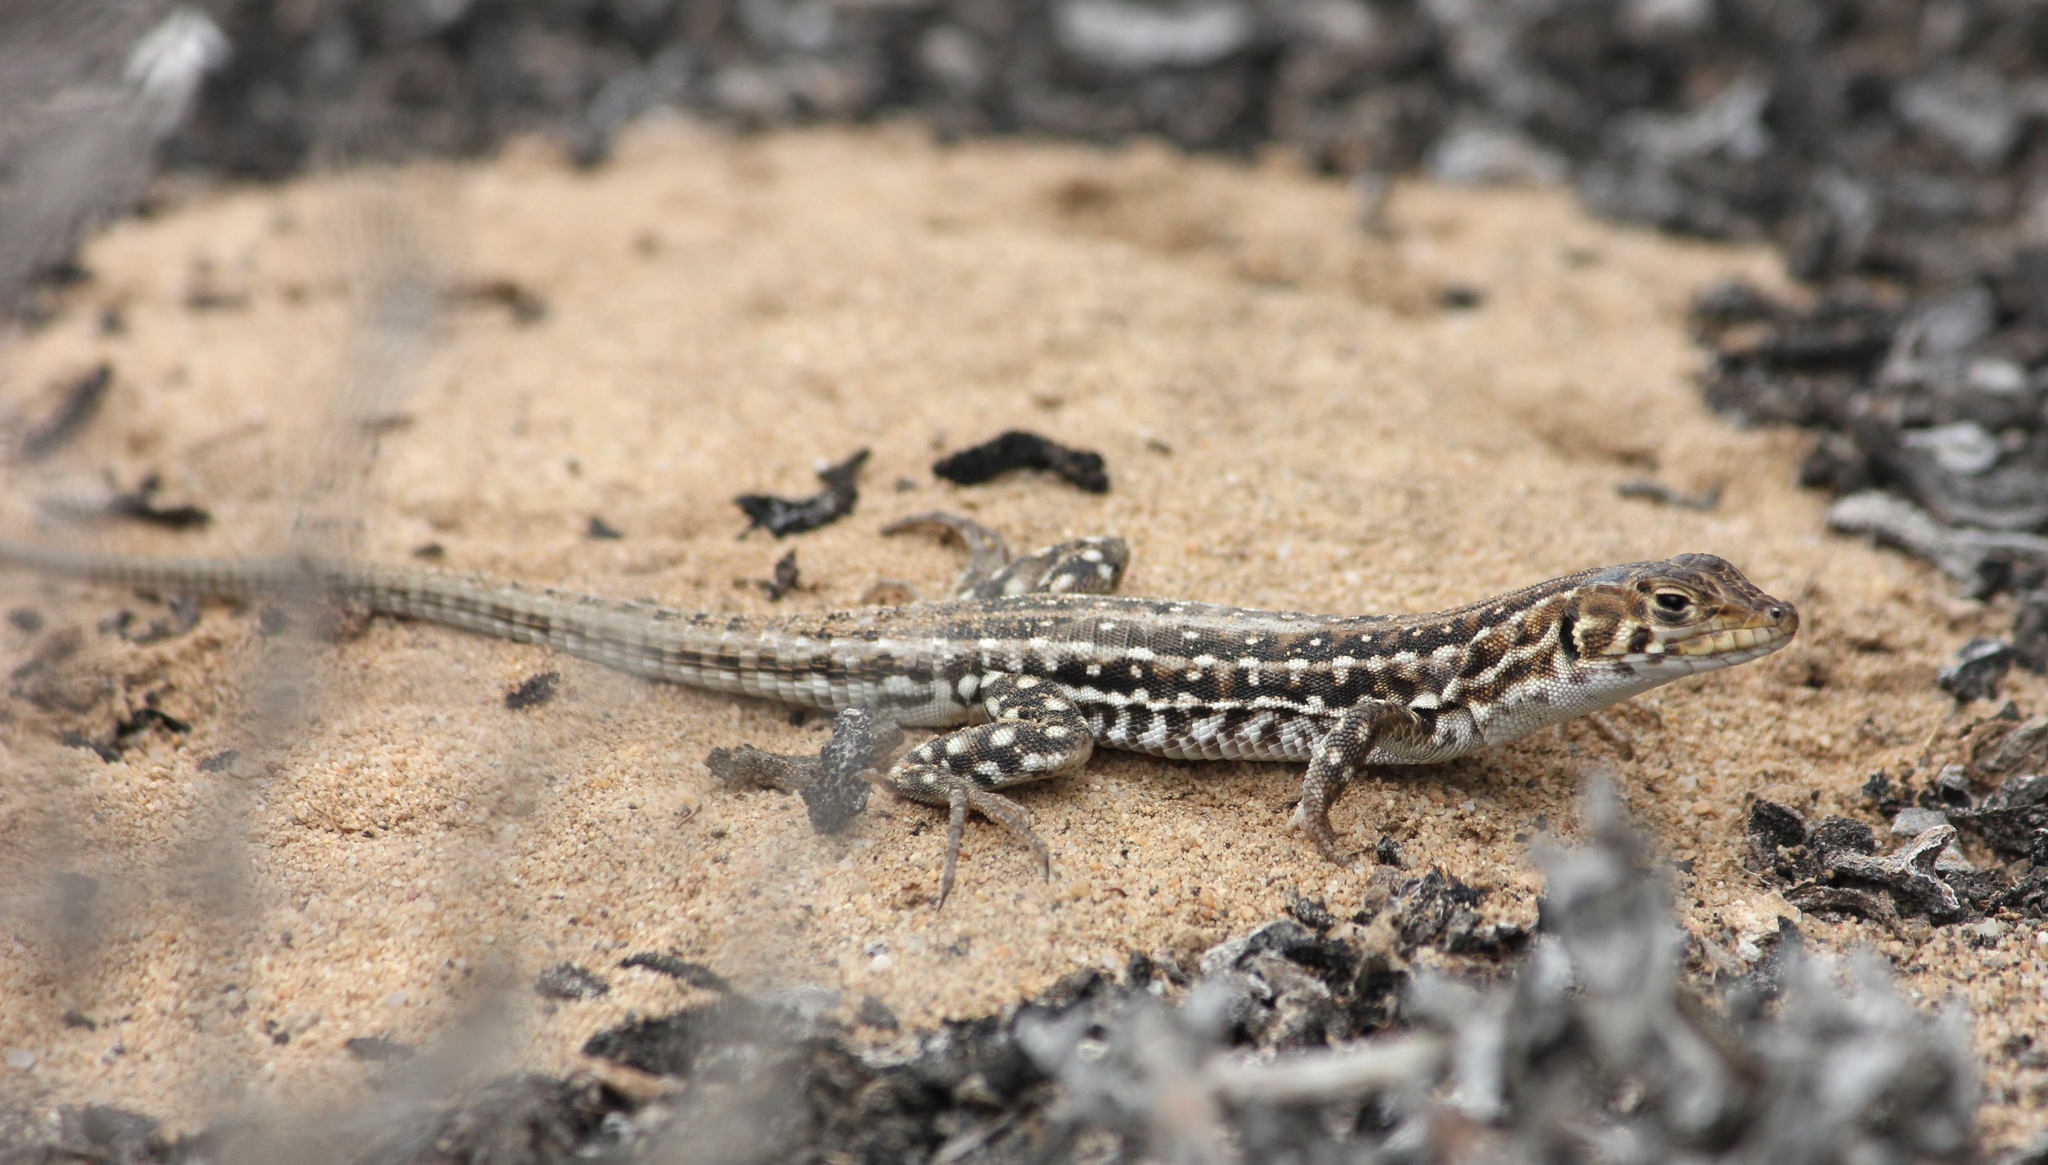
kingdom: Animalia
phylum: Chordata
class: Squamata
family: Lacertidae
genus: Meroles
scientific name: Meroles knoxii
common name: Knox's desert lizard
